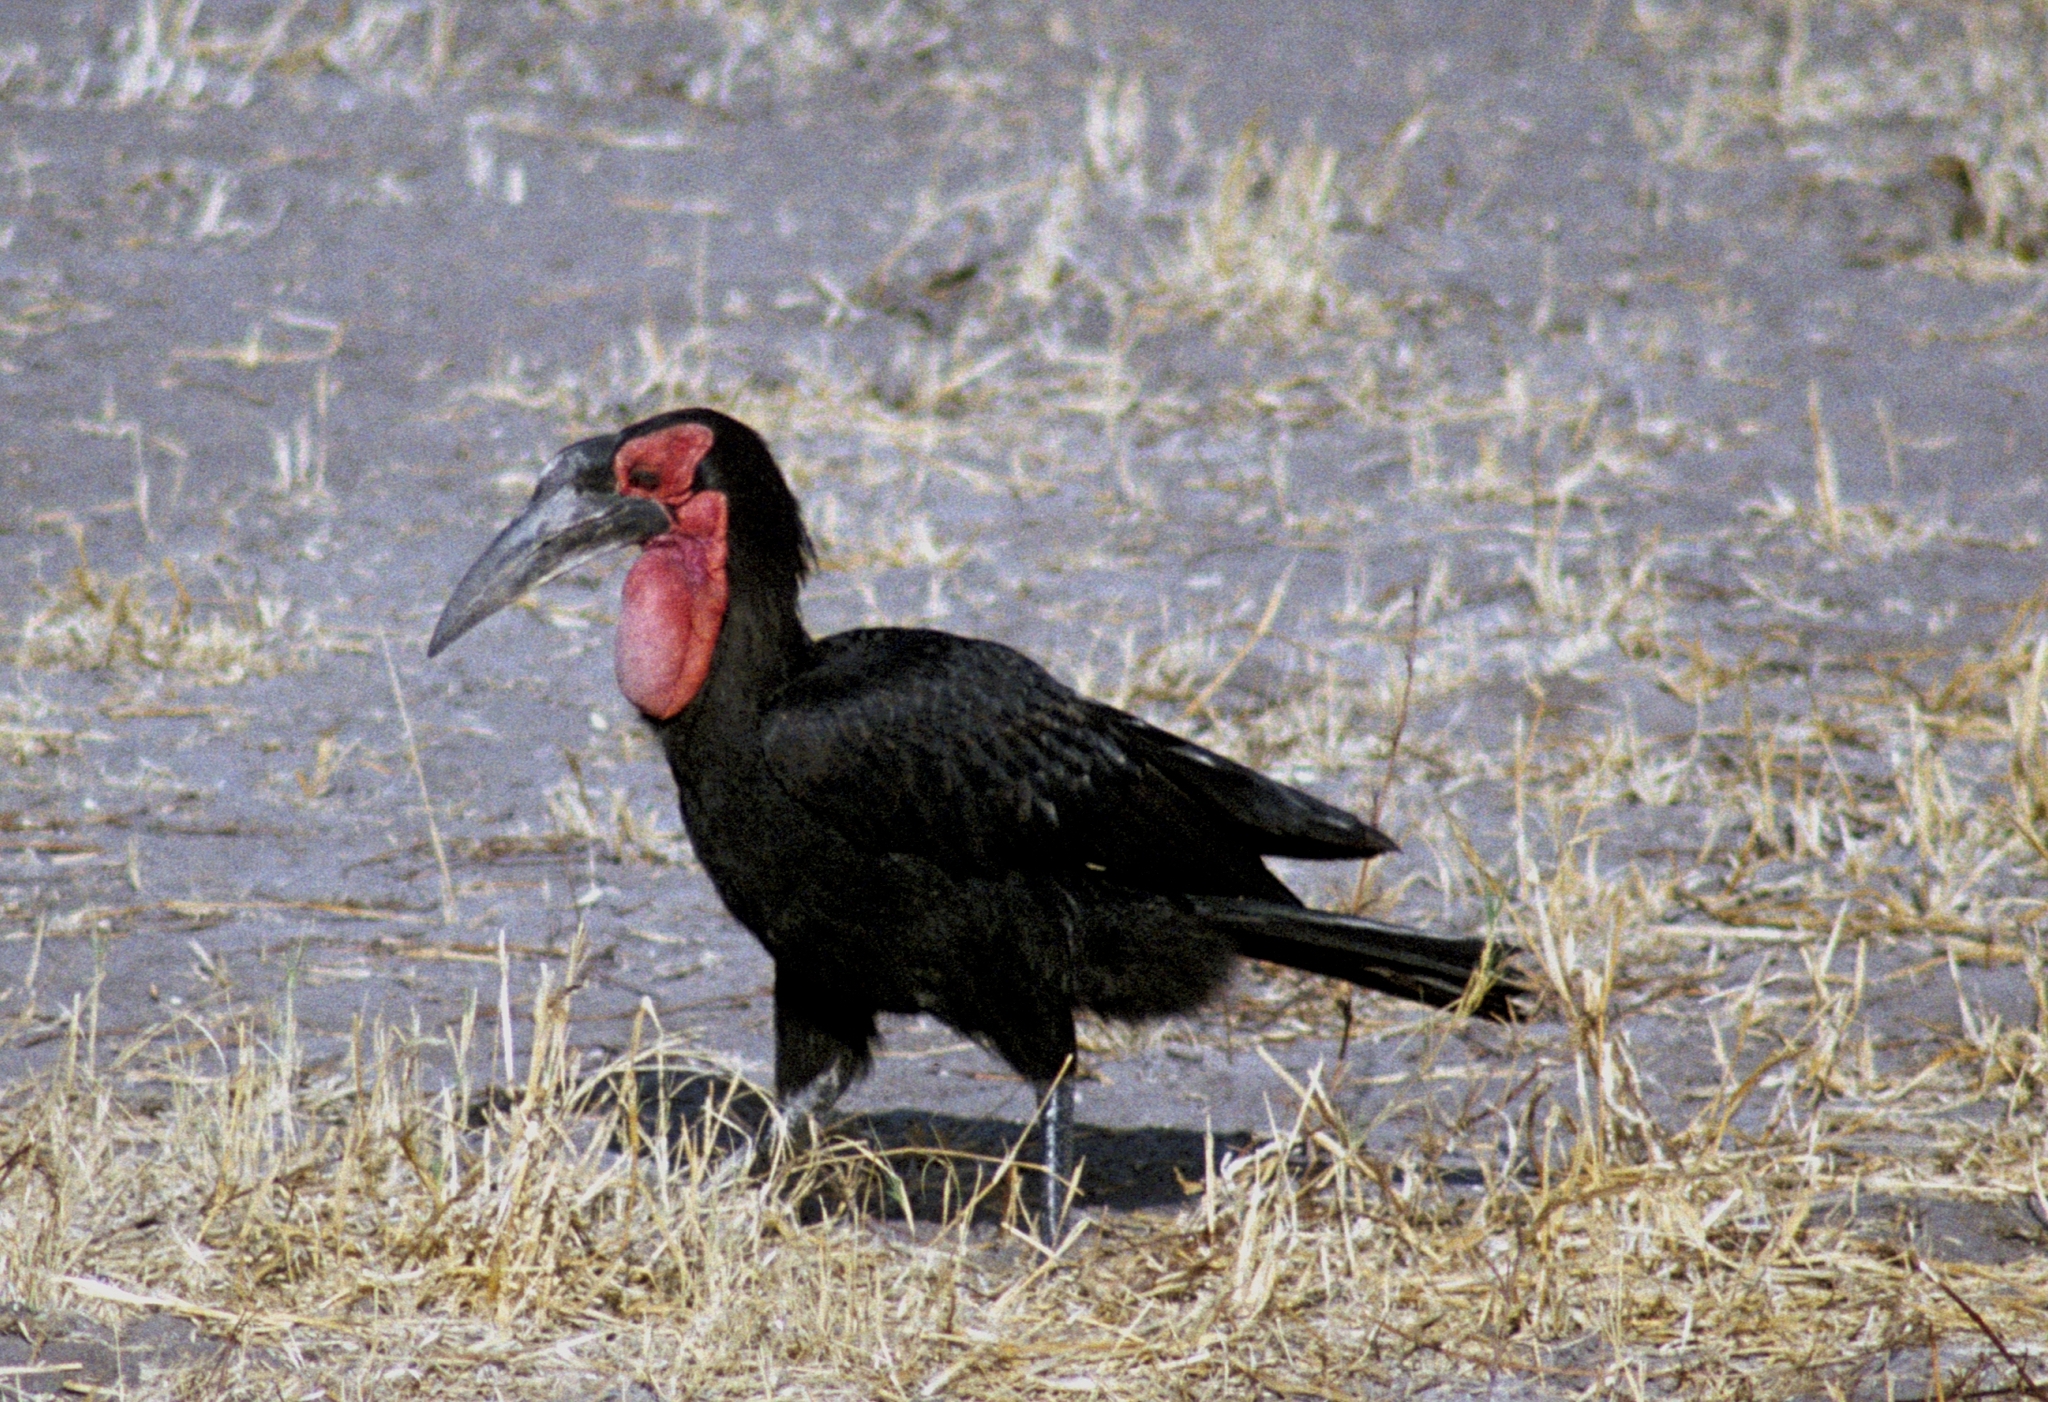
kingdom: Animalia
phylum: Chordata
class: Aves
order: Bucerotiformes
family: Bucorvidae
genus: Bucorvus
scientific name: Bucorvus leadbeateri
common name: Southern ground-hornbill
